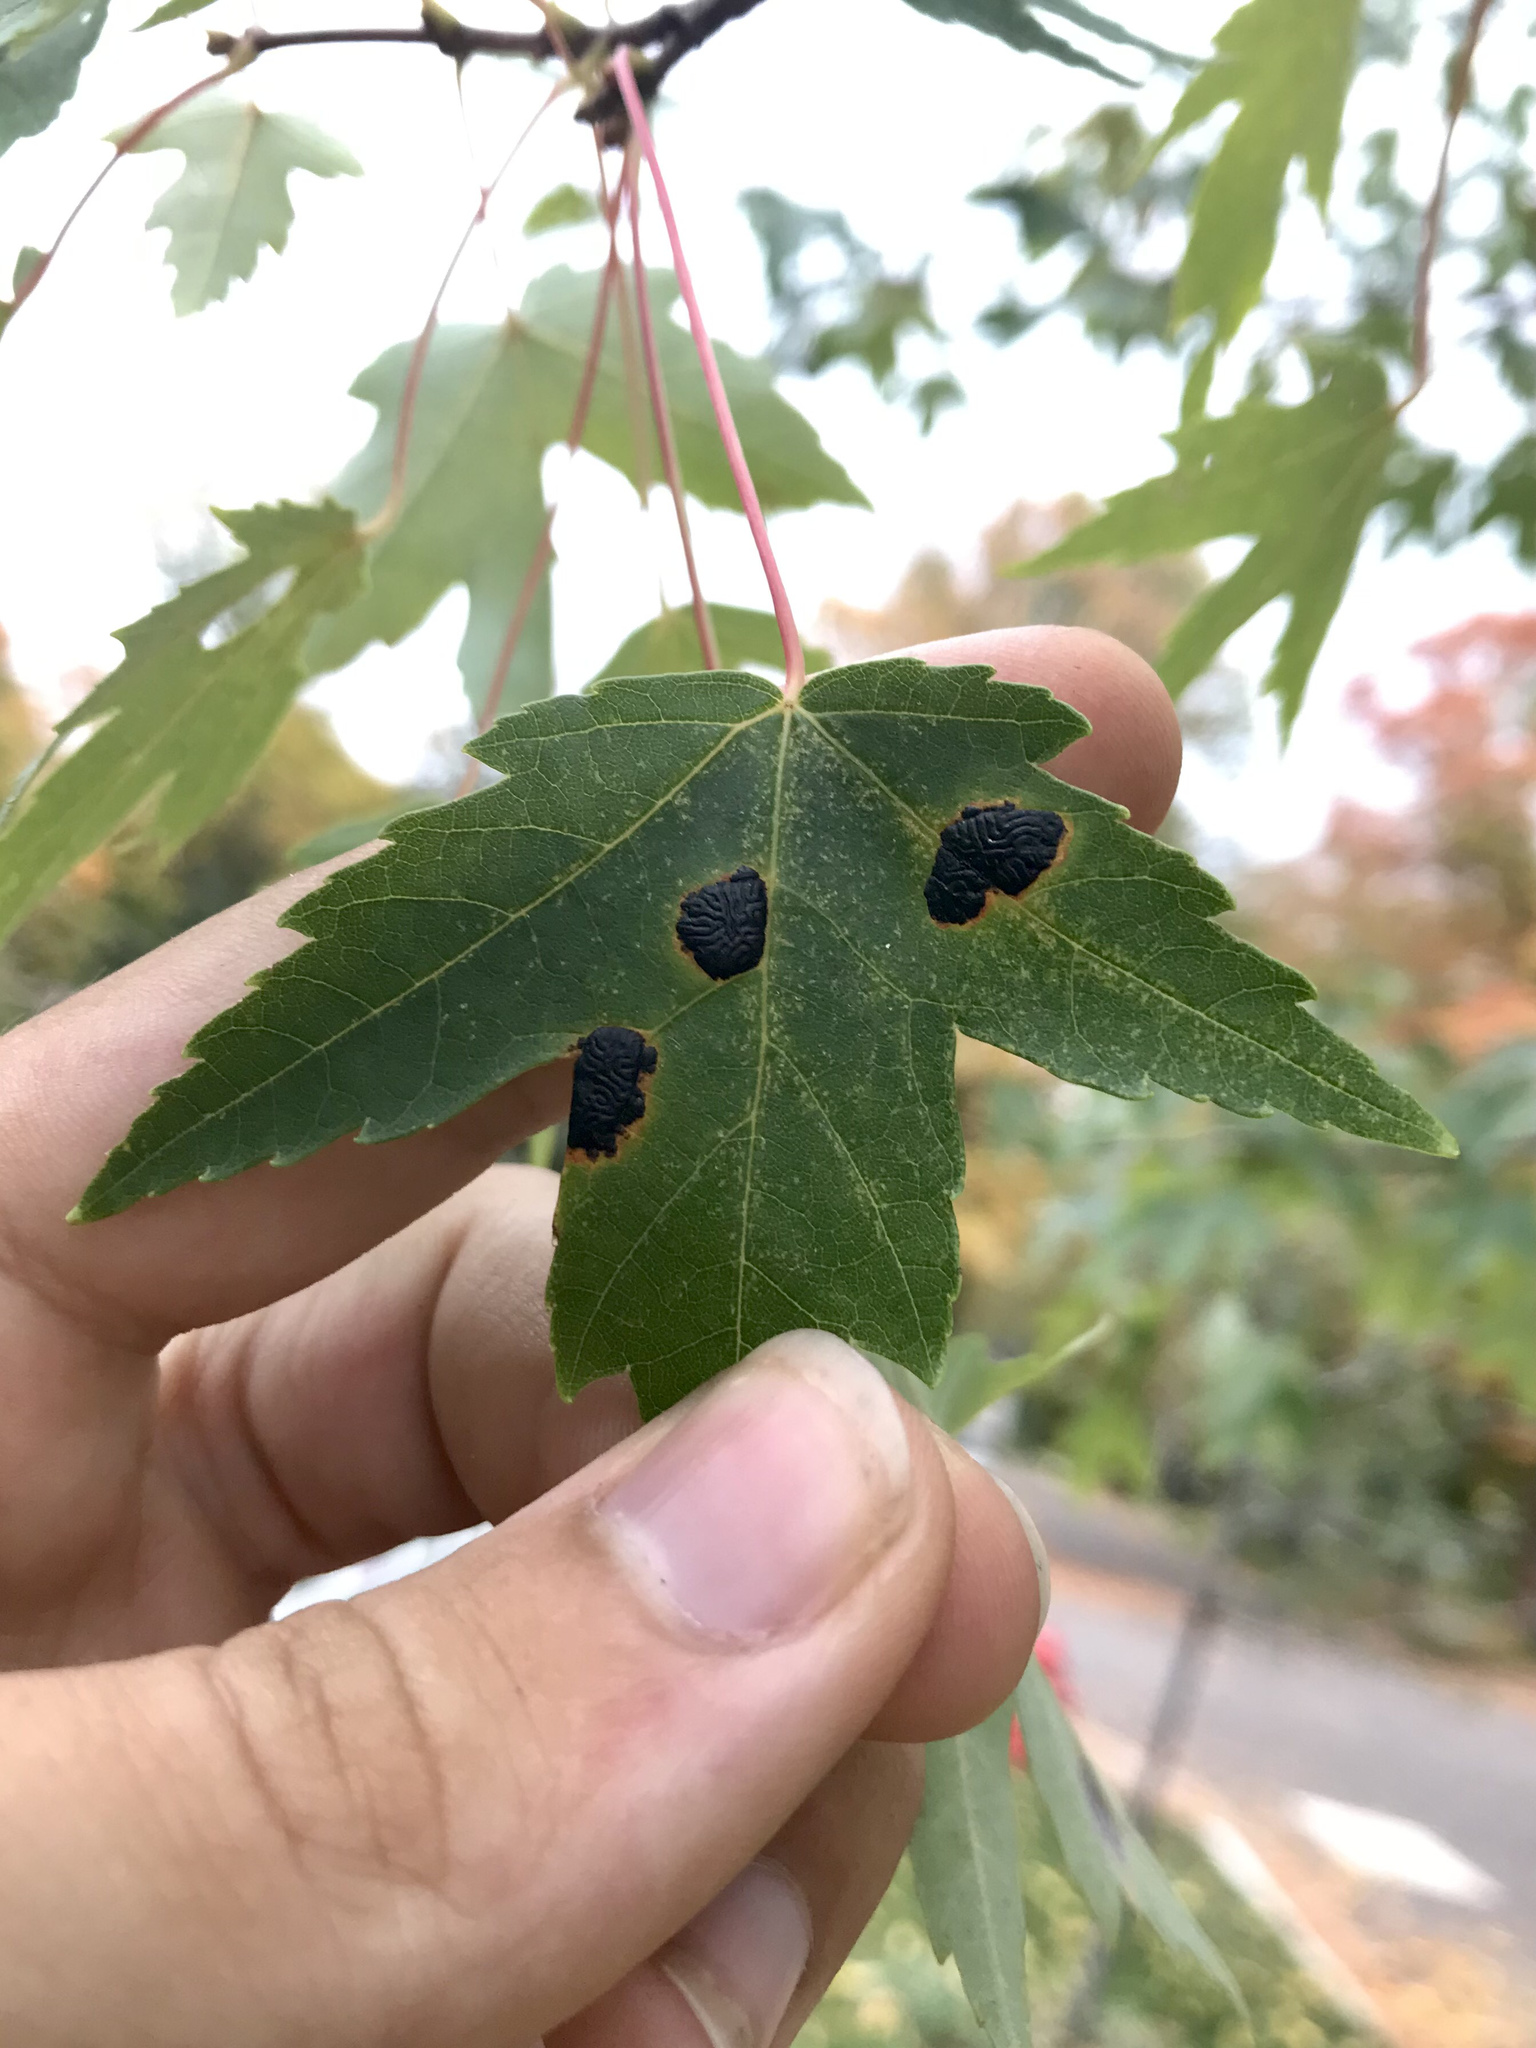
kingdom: Fungi
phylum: Ascomycota
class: Leotiomycetes
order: Rhytismatales
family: Rhytismataceae
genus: Rhytisma
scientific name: Rhytisma americanum
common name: American tar spot
